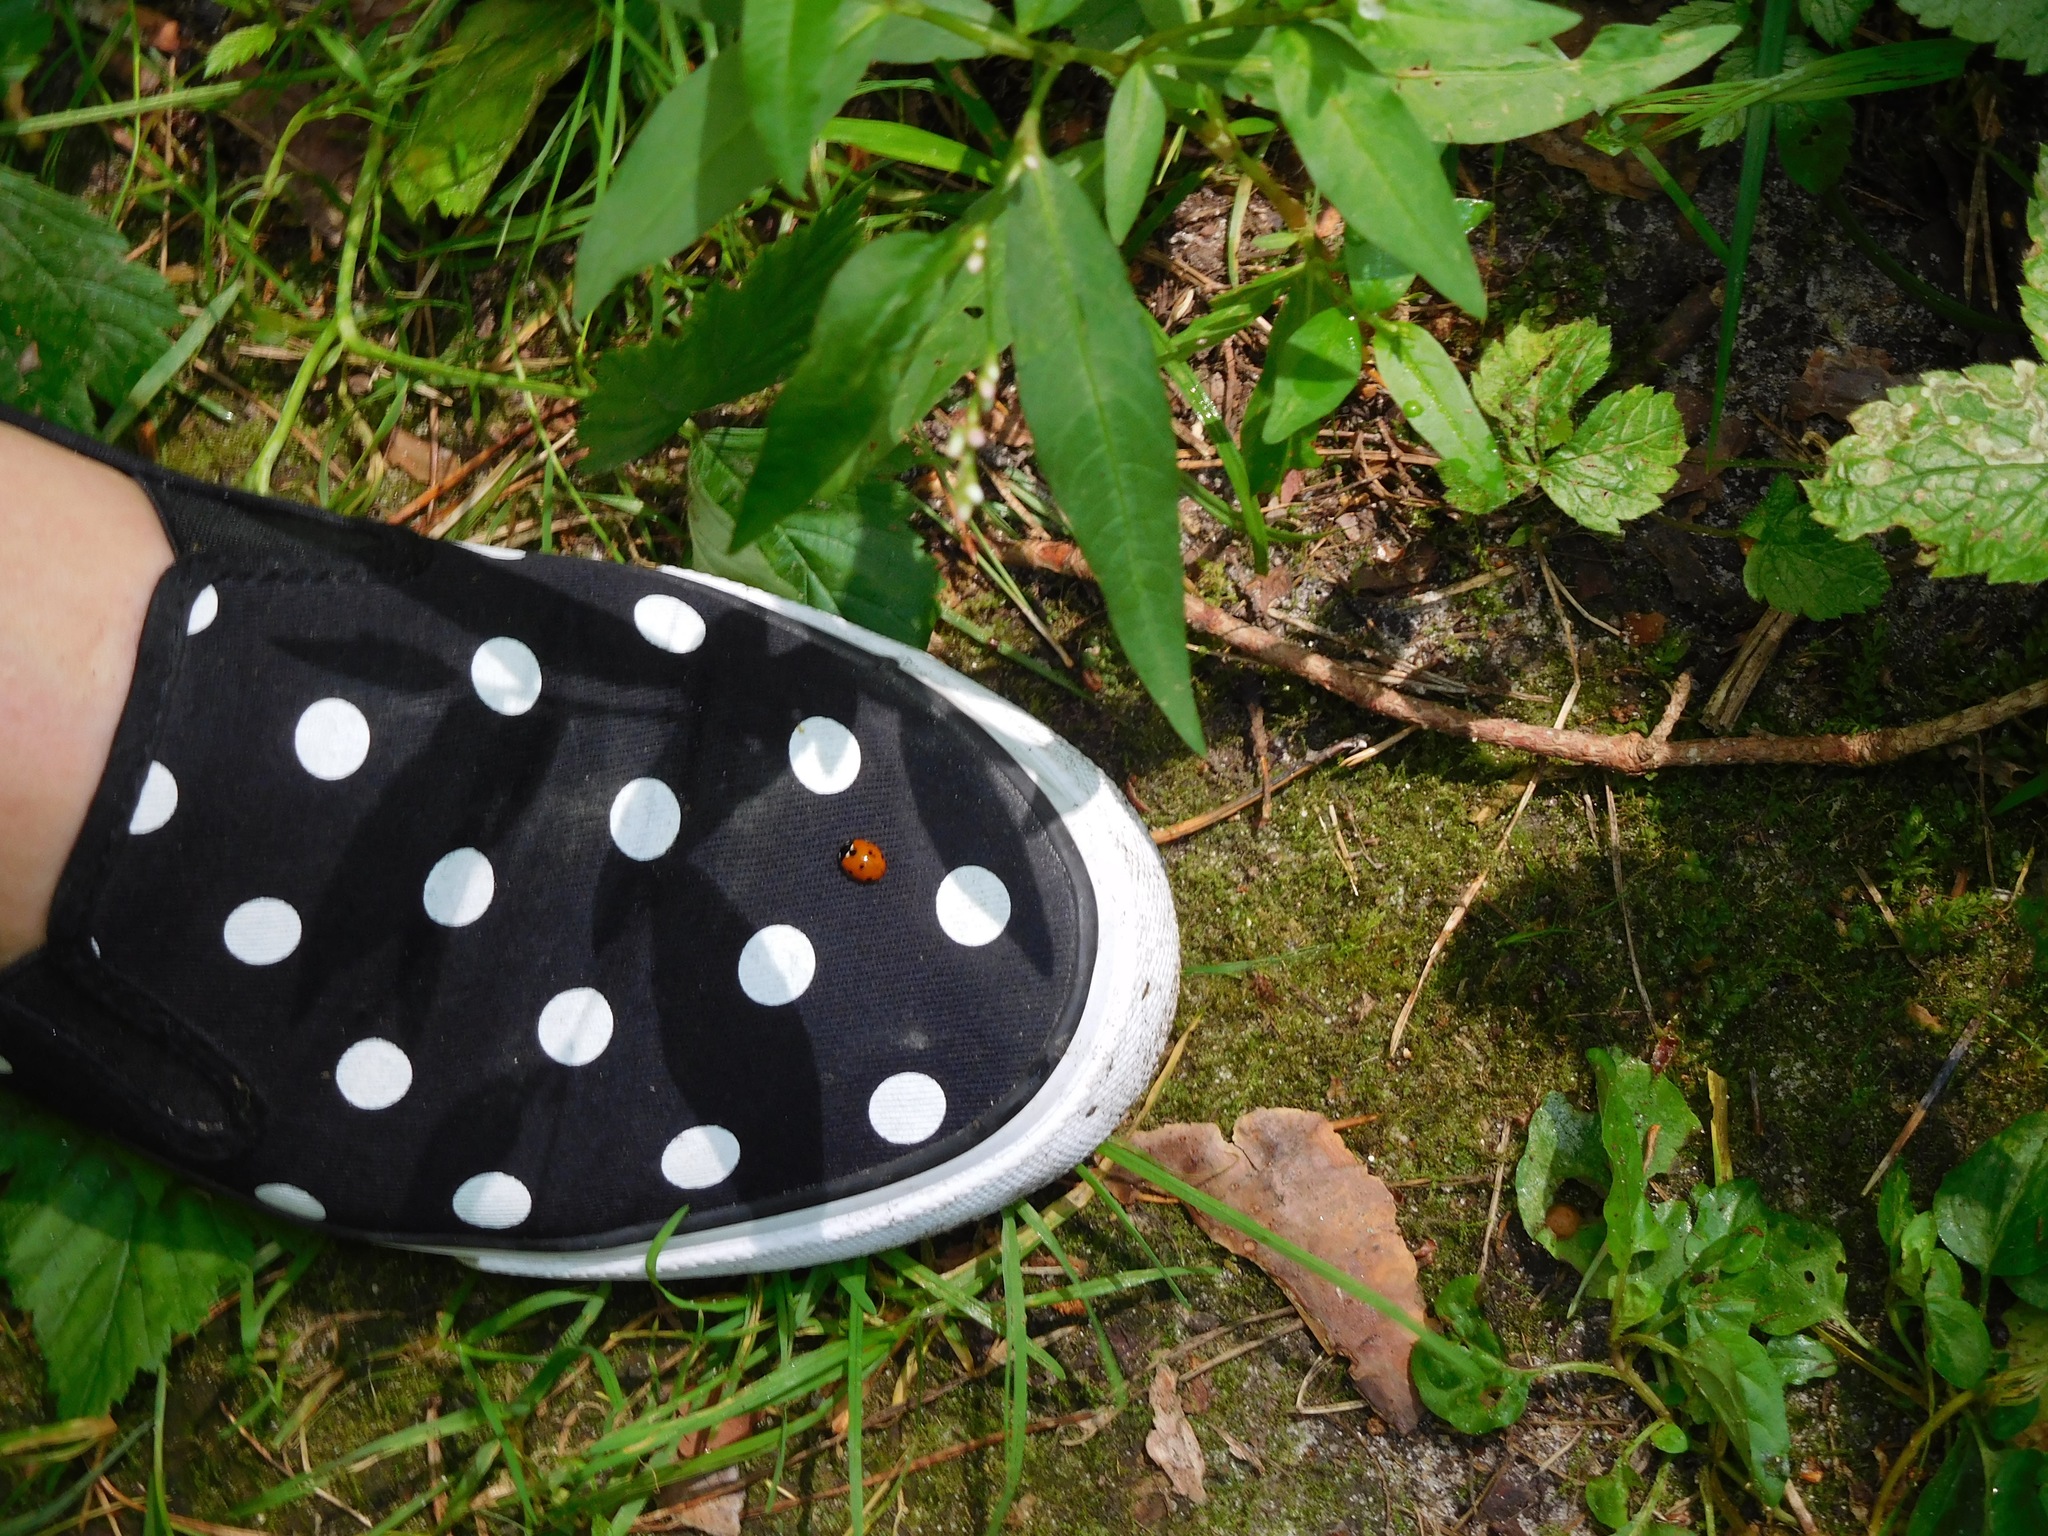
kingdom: Animalia
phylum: Arthropoda
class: Insecta
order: Coleoptera
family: Coccinellidae
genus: Coccinella
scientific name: Coccinella septempunctata
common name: Sevenspotted lady beetle
